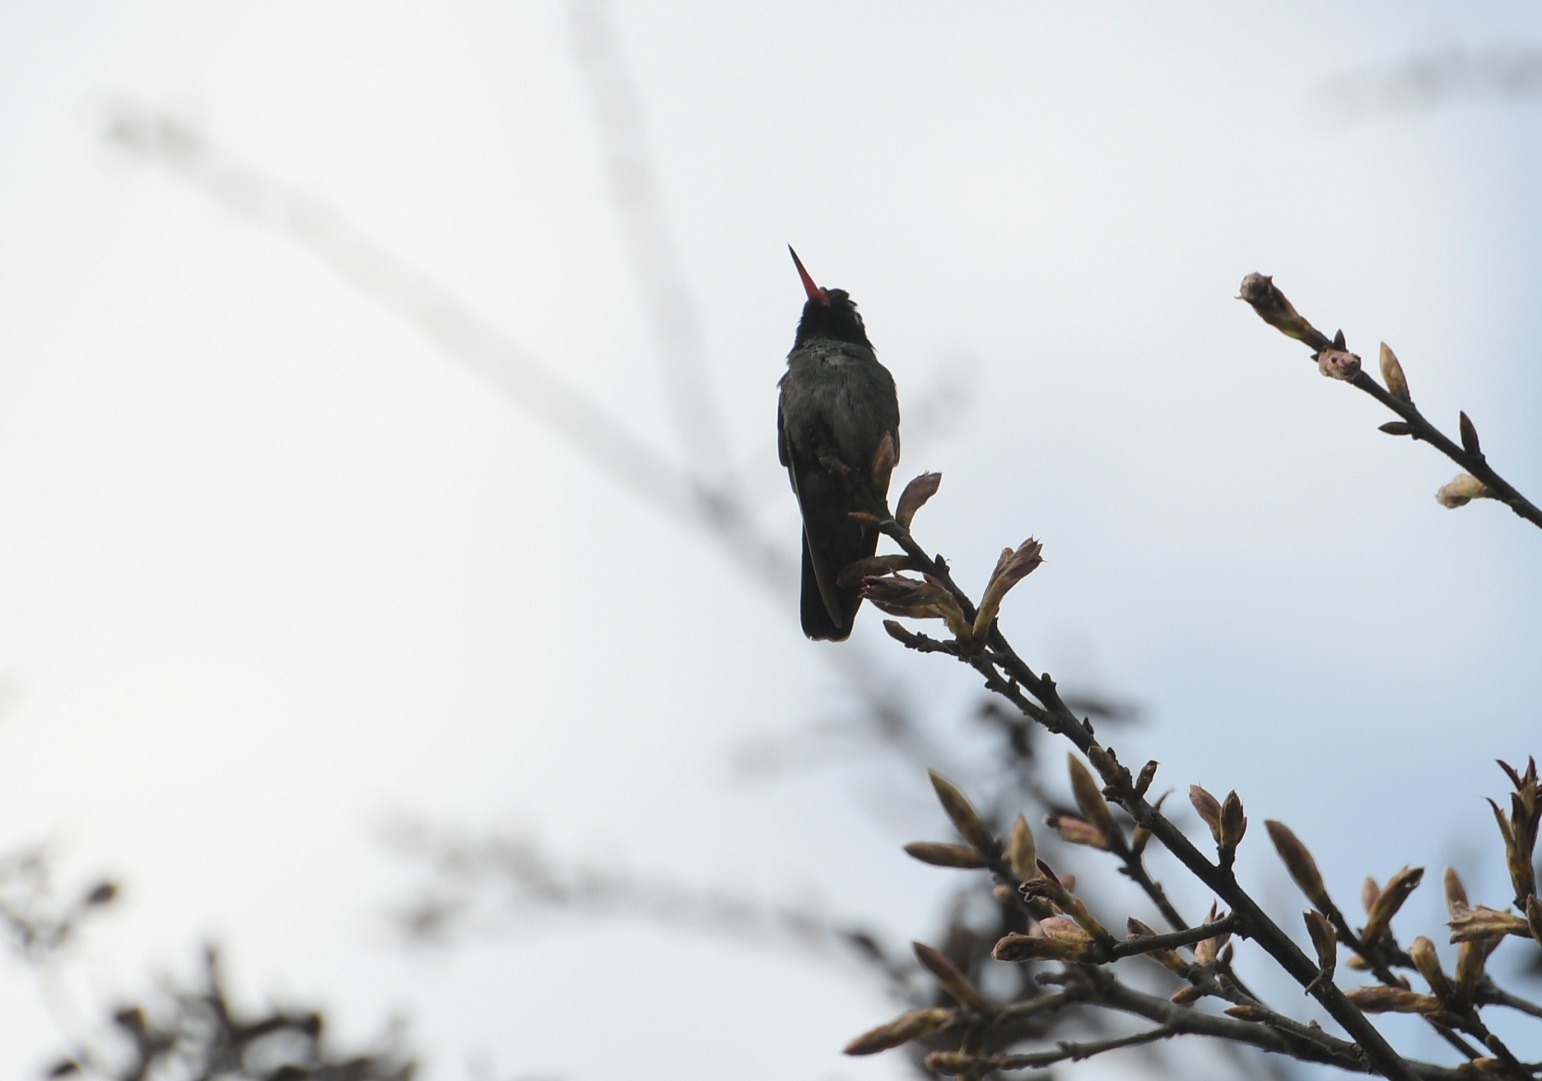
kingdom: Animalia
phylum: Chordata
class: Aves
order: Apodiformes
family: Trochilidae
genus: Basilinna
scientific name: Basilinna leucotis
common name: White-eared hummingbird
